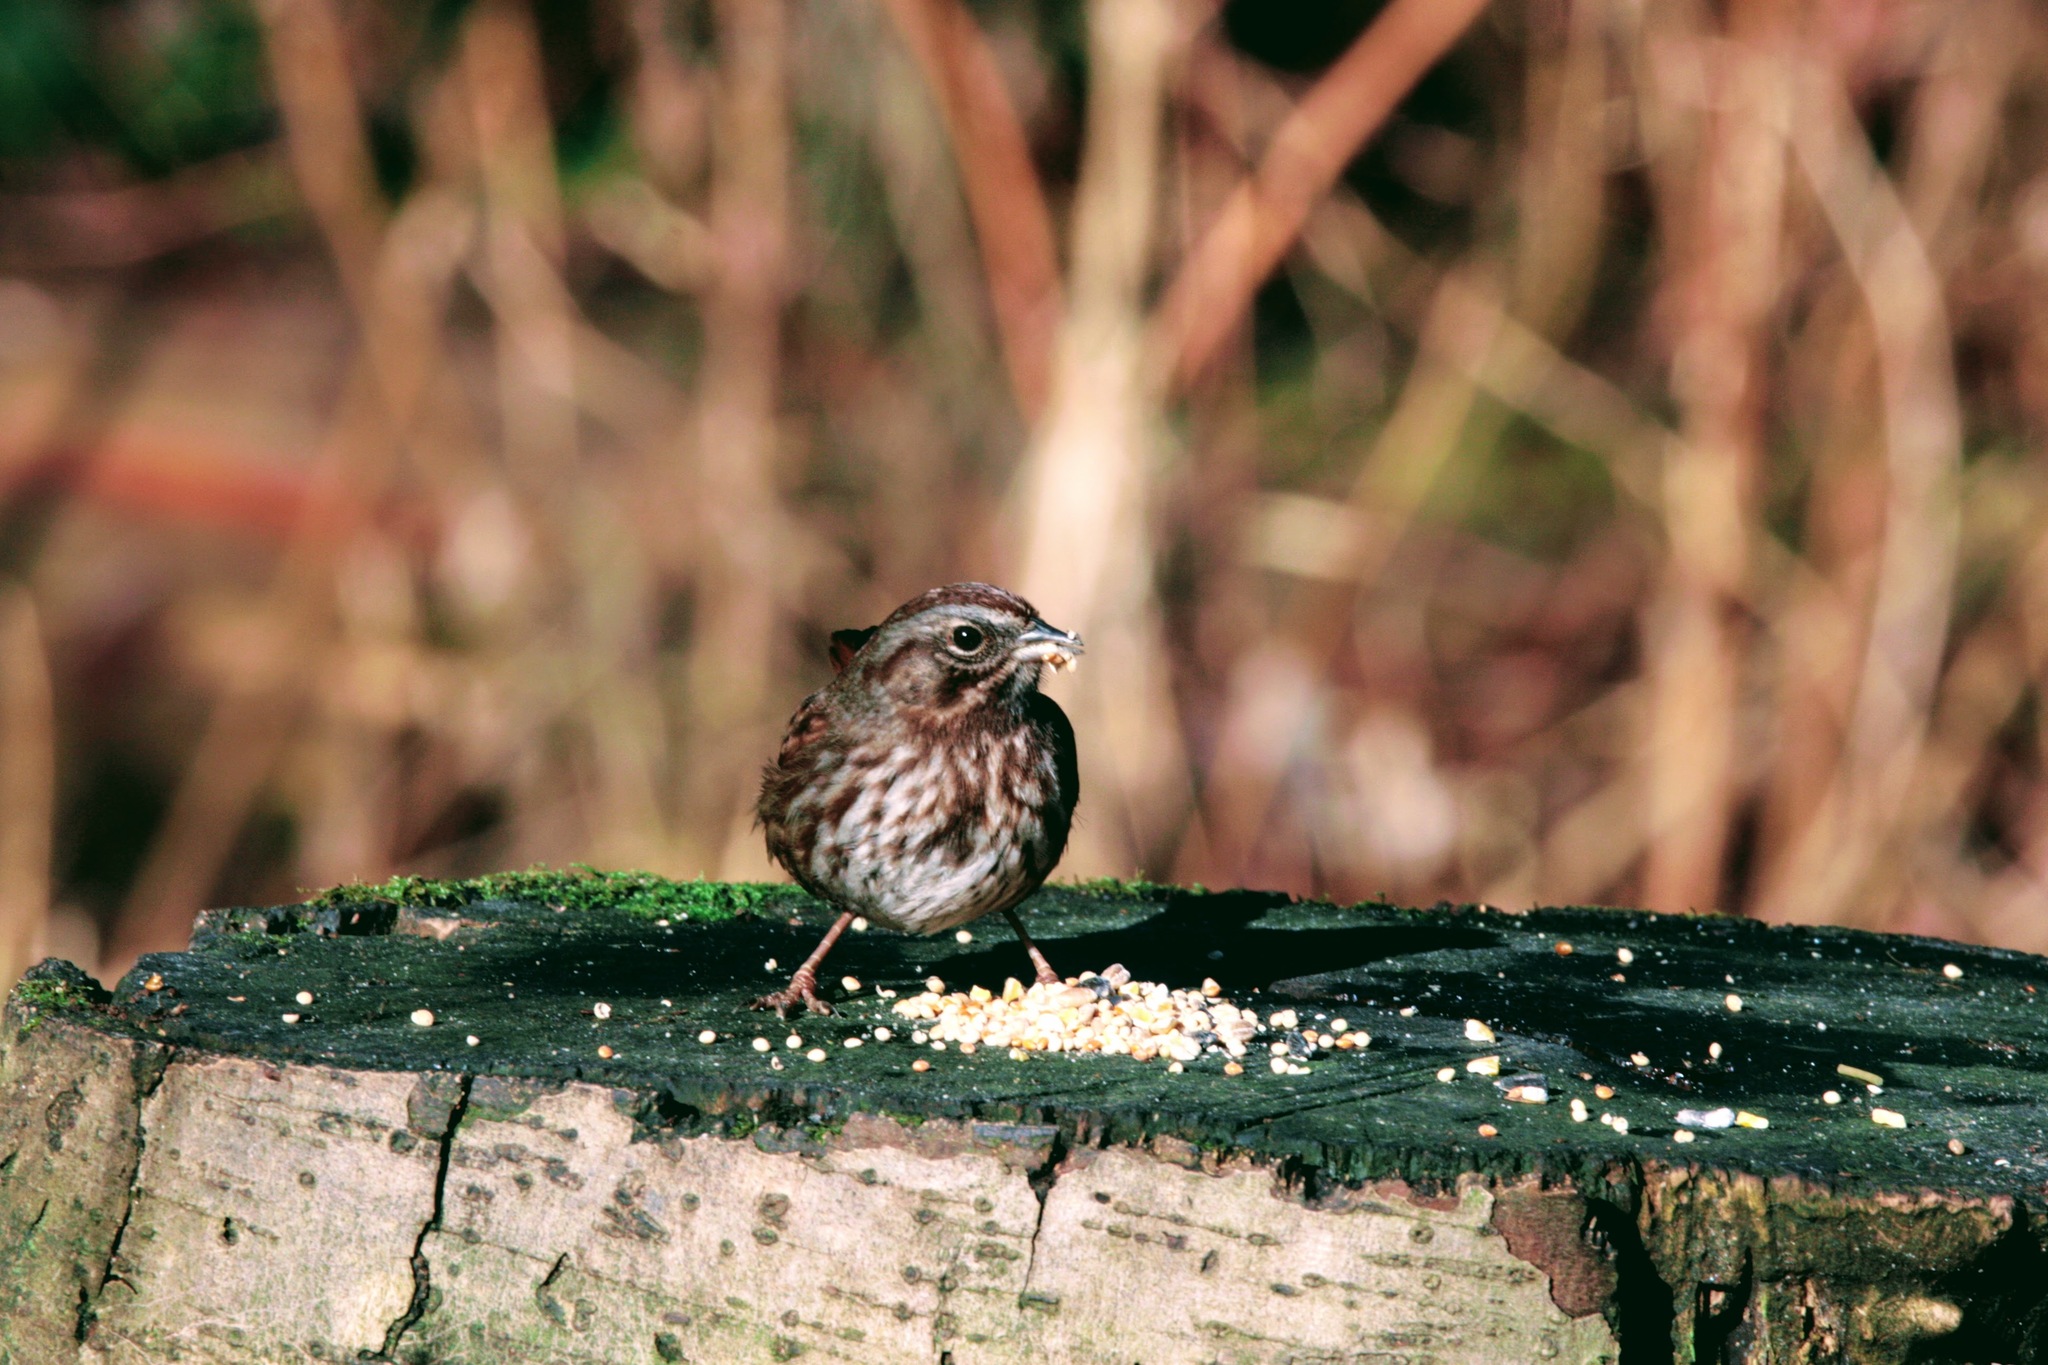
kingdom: Animalia
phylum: Chordata
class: Aves
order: Passeriformes
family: Passerellidae
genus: Melospiza
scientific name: Melospiza melodia
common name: Song sparrow
